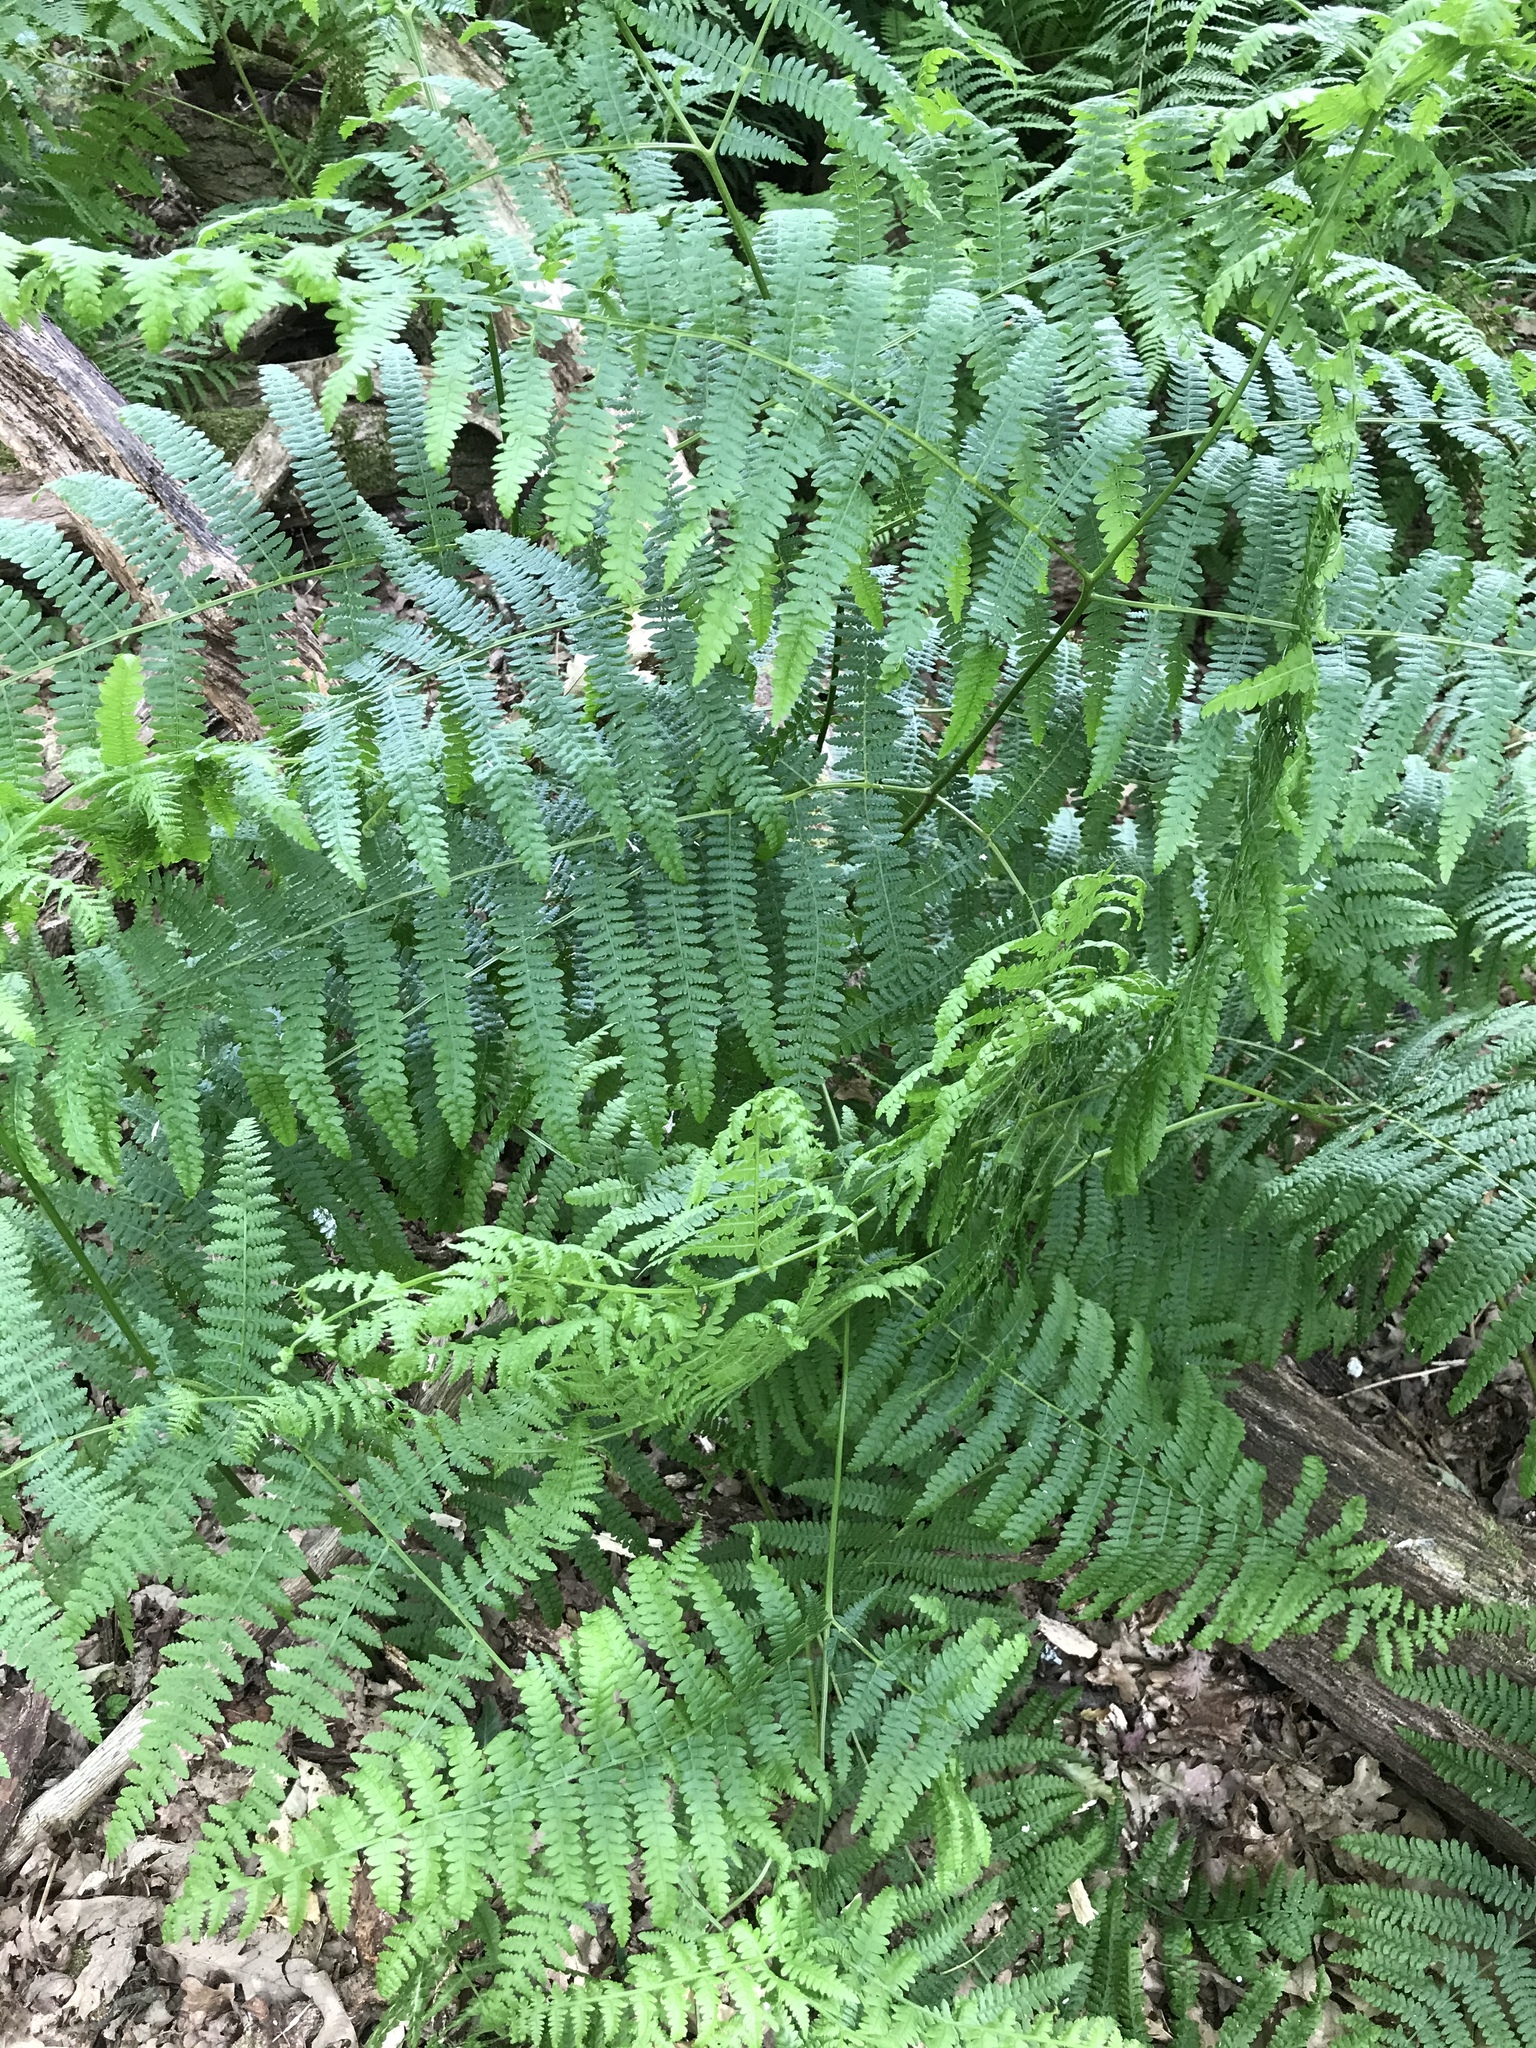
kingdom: Plantae
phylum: Tracheophyta
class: Polypodiopsida
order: Polypodiales
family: Dennstaedtiaceae
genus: Pteridium
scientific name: Pteridium aquilinum
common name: Bracken
